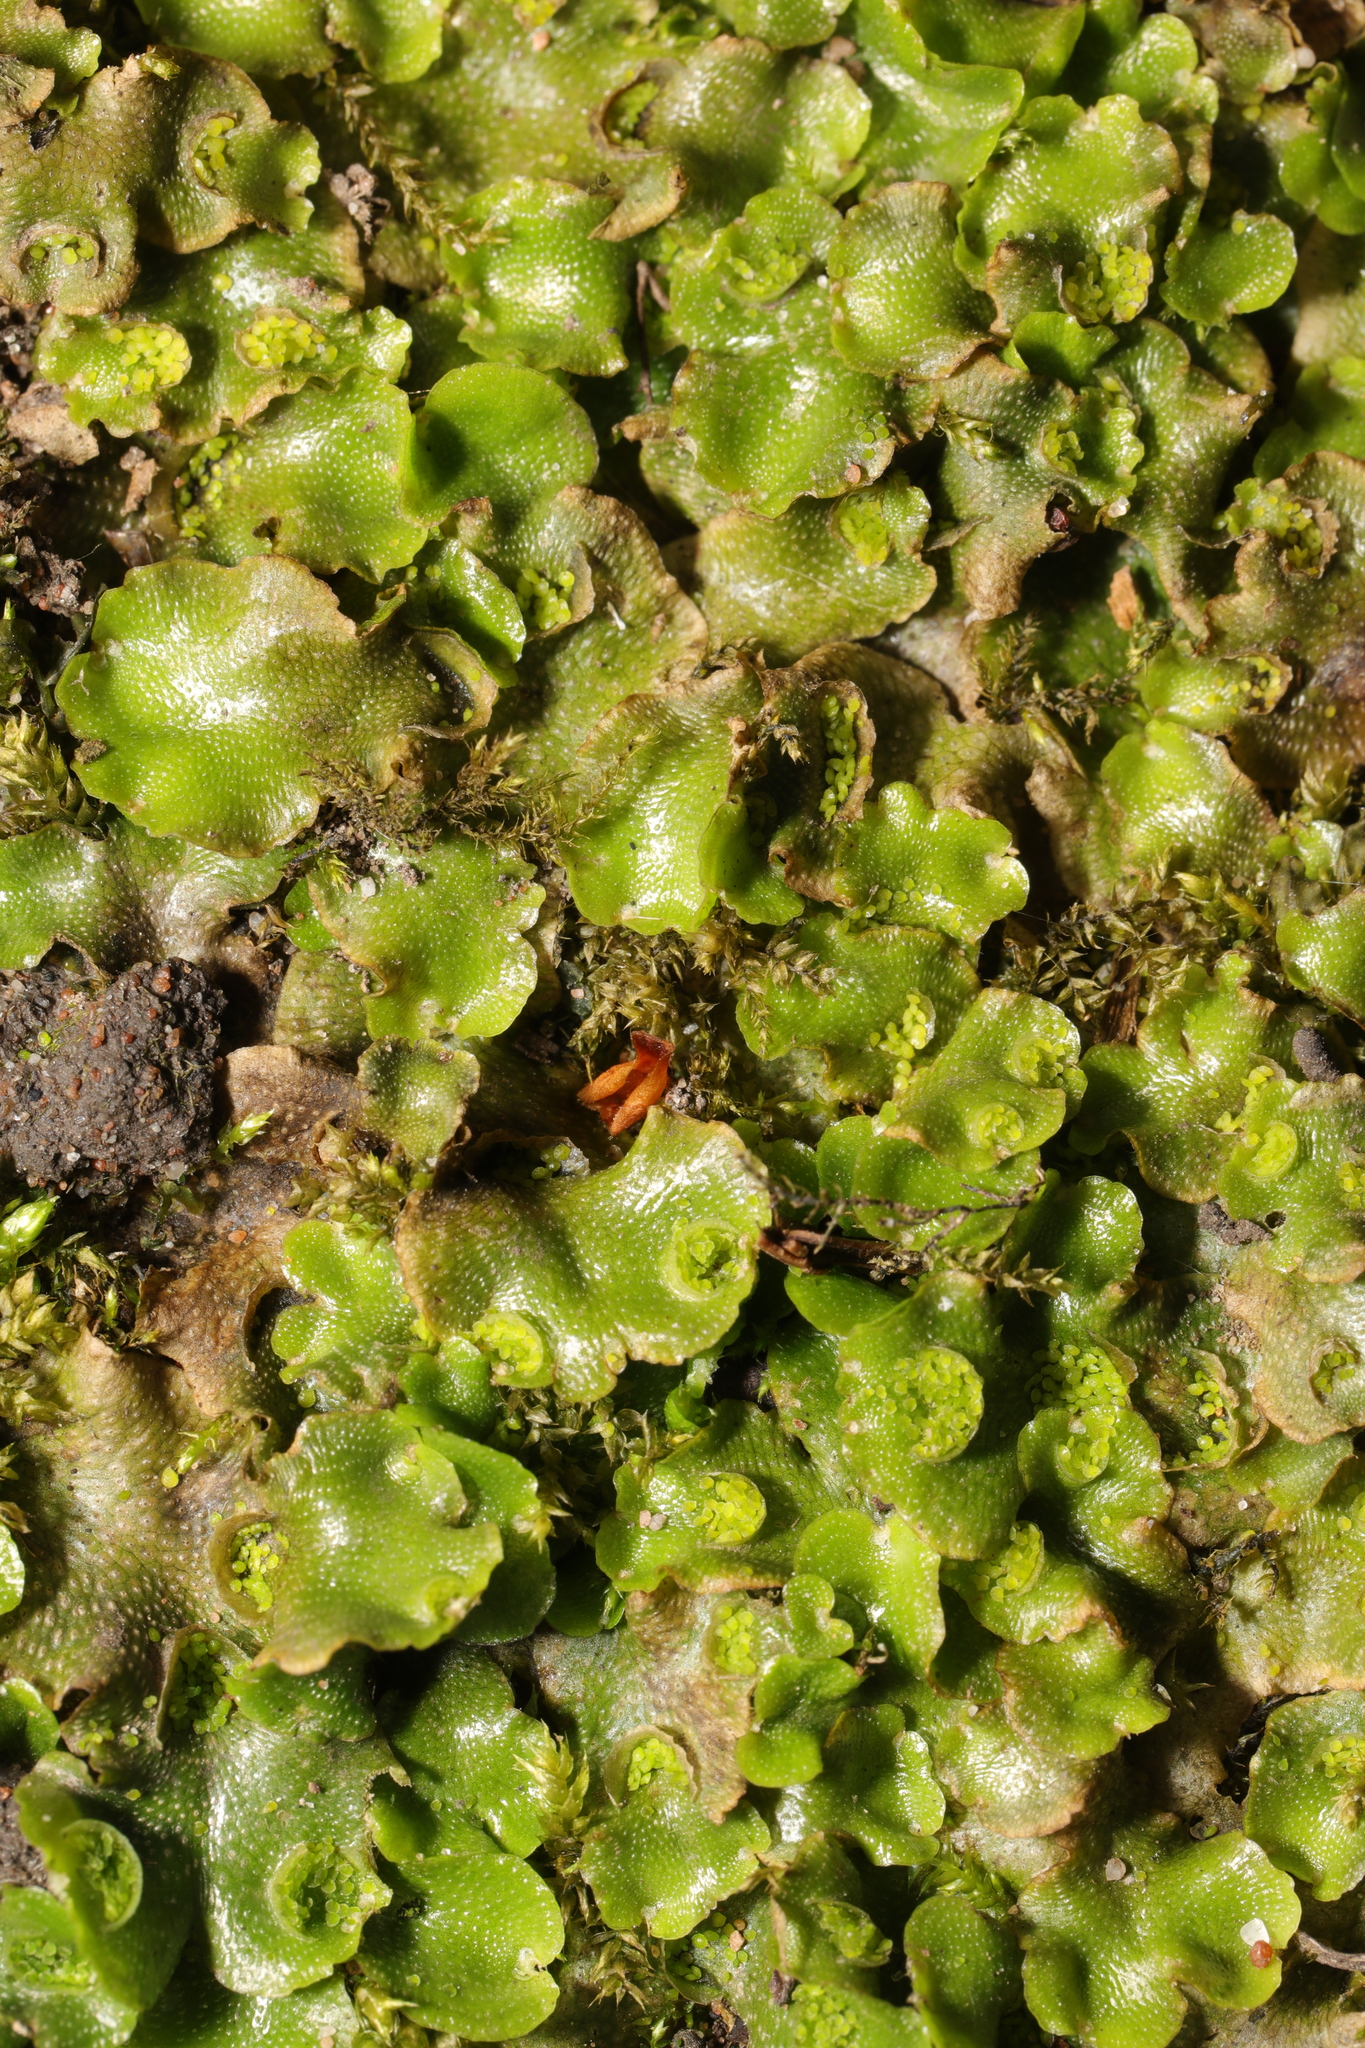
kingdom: Plantae
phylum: Marchantiophyta
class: Marchantiopsida
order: Lunulariales
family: Lunulariaceae
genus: Lunularia
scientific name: Lunularia cruciata
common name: Crescent-cup liverwort
